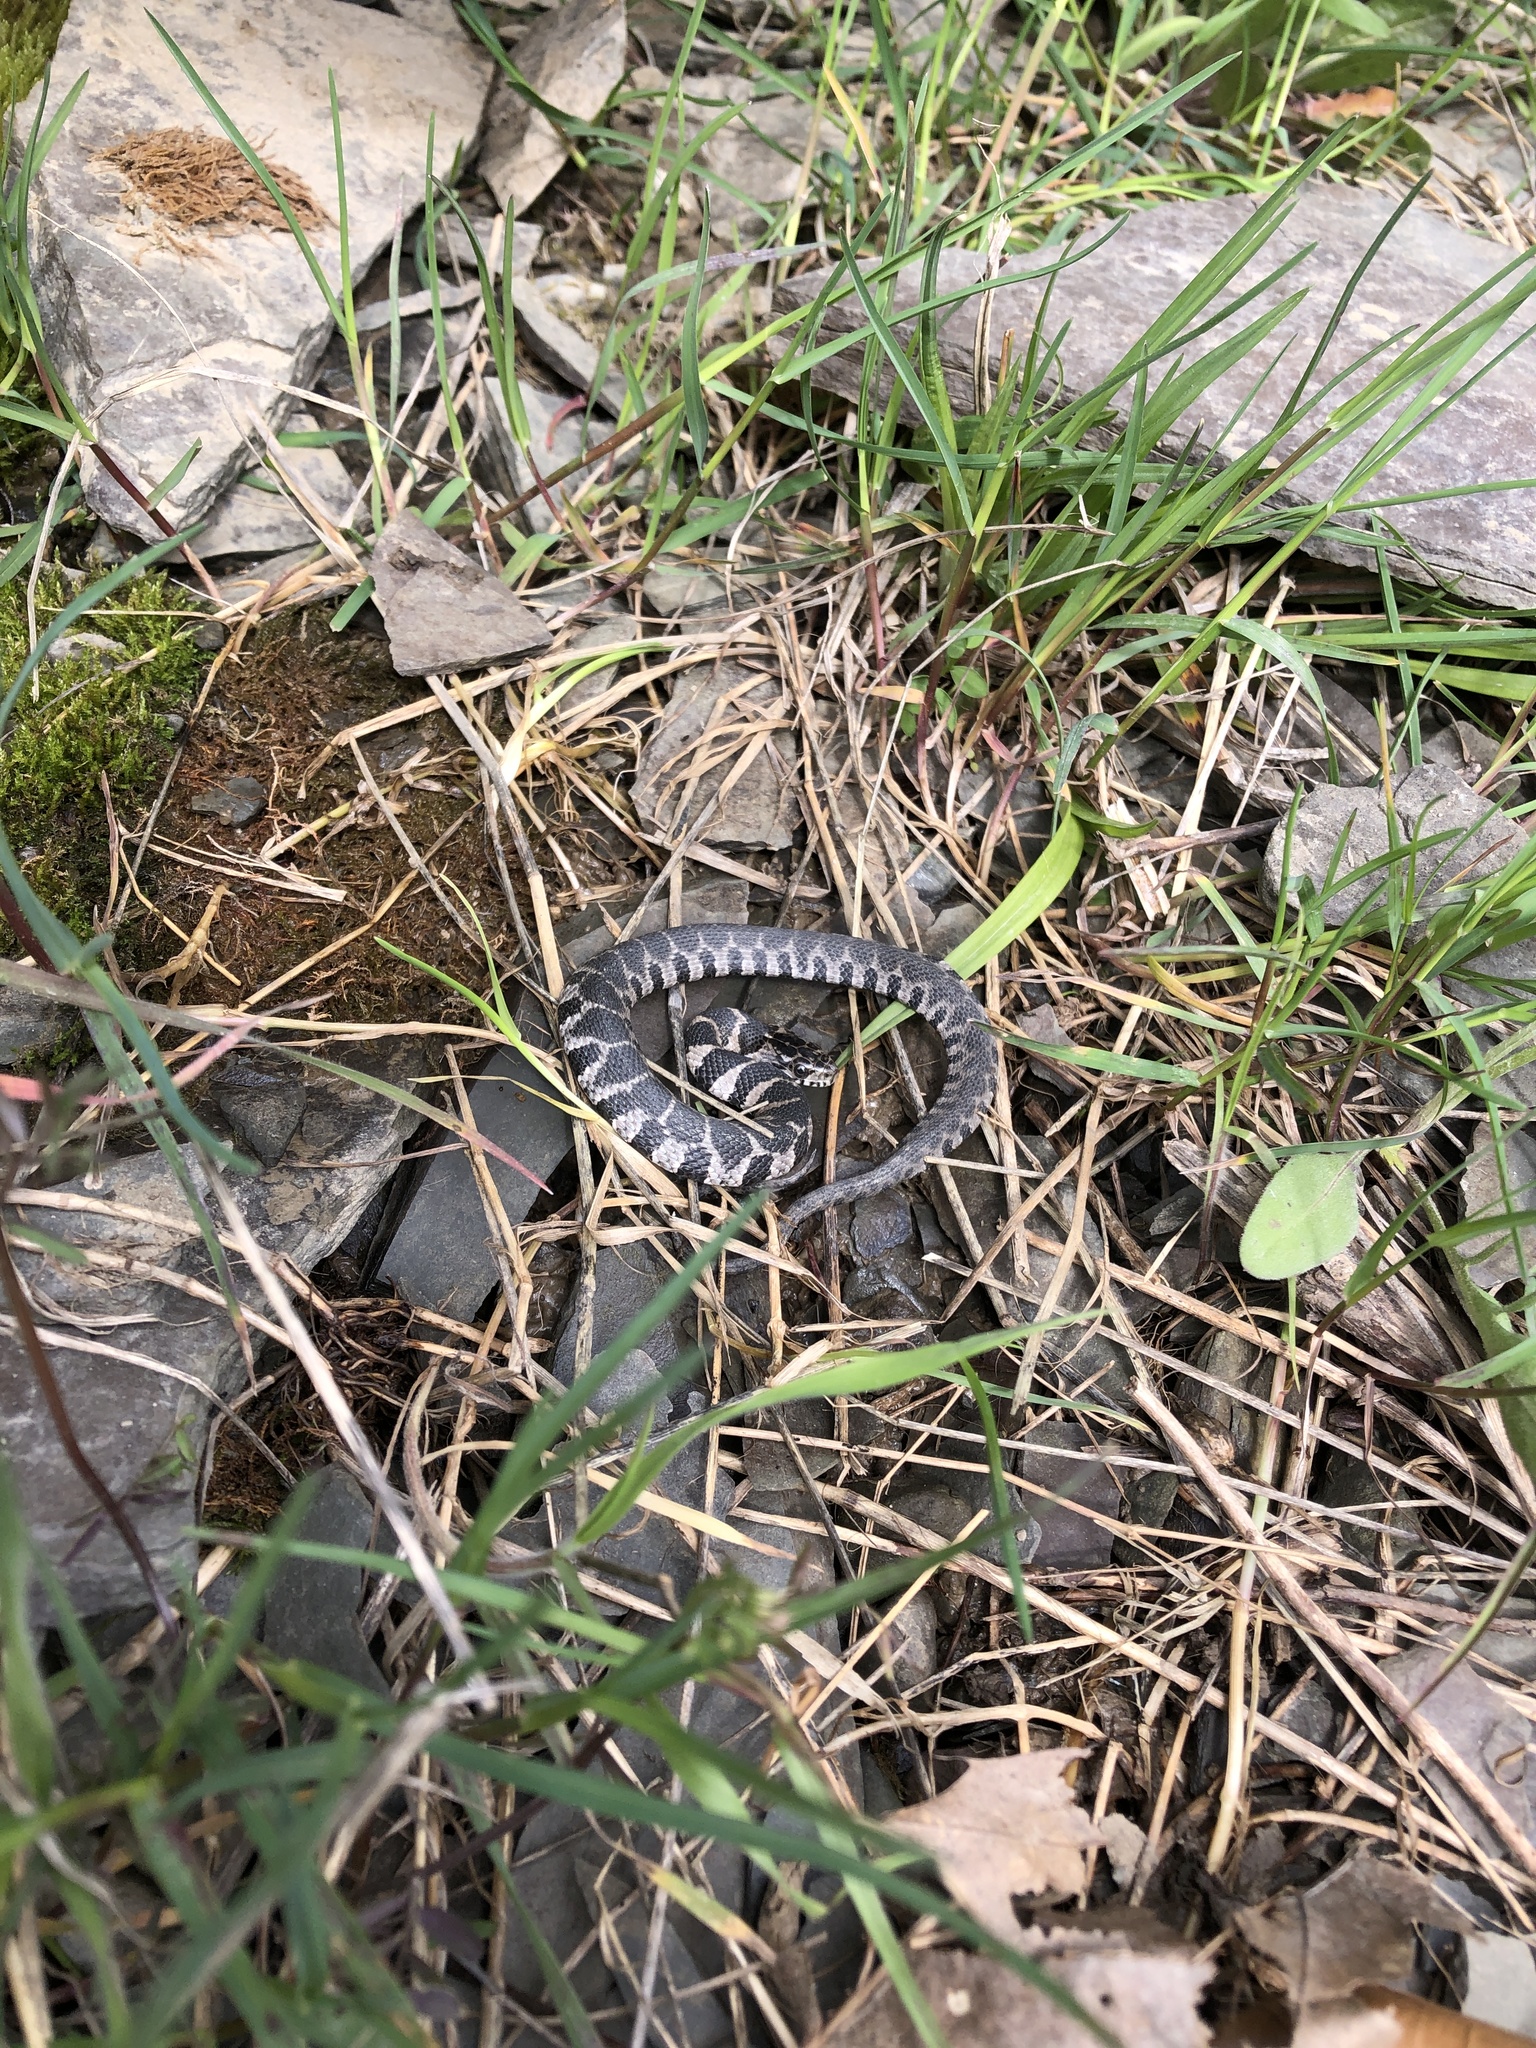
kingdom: Animalia
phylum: Chordata
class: Squamata
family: Colubridae
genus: Nerodia
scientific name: Nerodia sipedon
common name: Northern water snake
